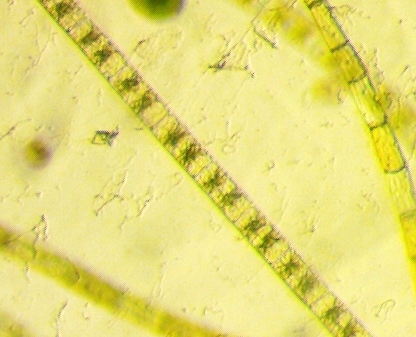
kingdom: Plantae
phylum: Charophyta
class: Zygnematophyceae
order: Zygnematales
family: Zygnemataceae
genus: Zygnema
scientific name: Zygnema
